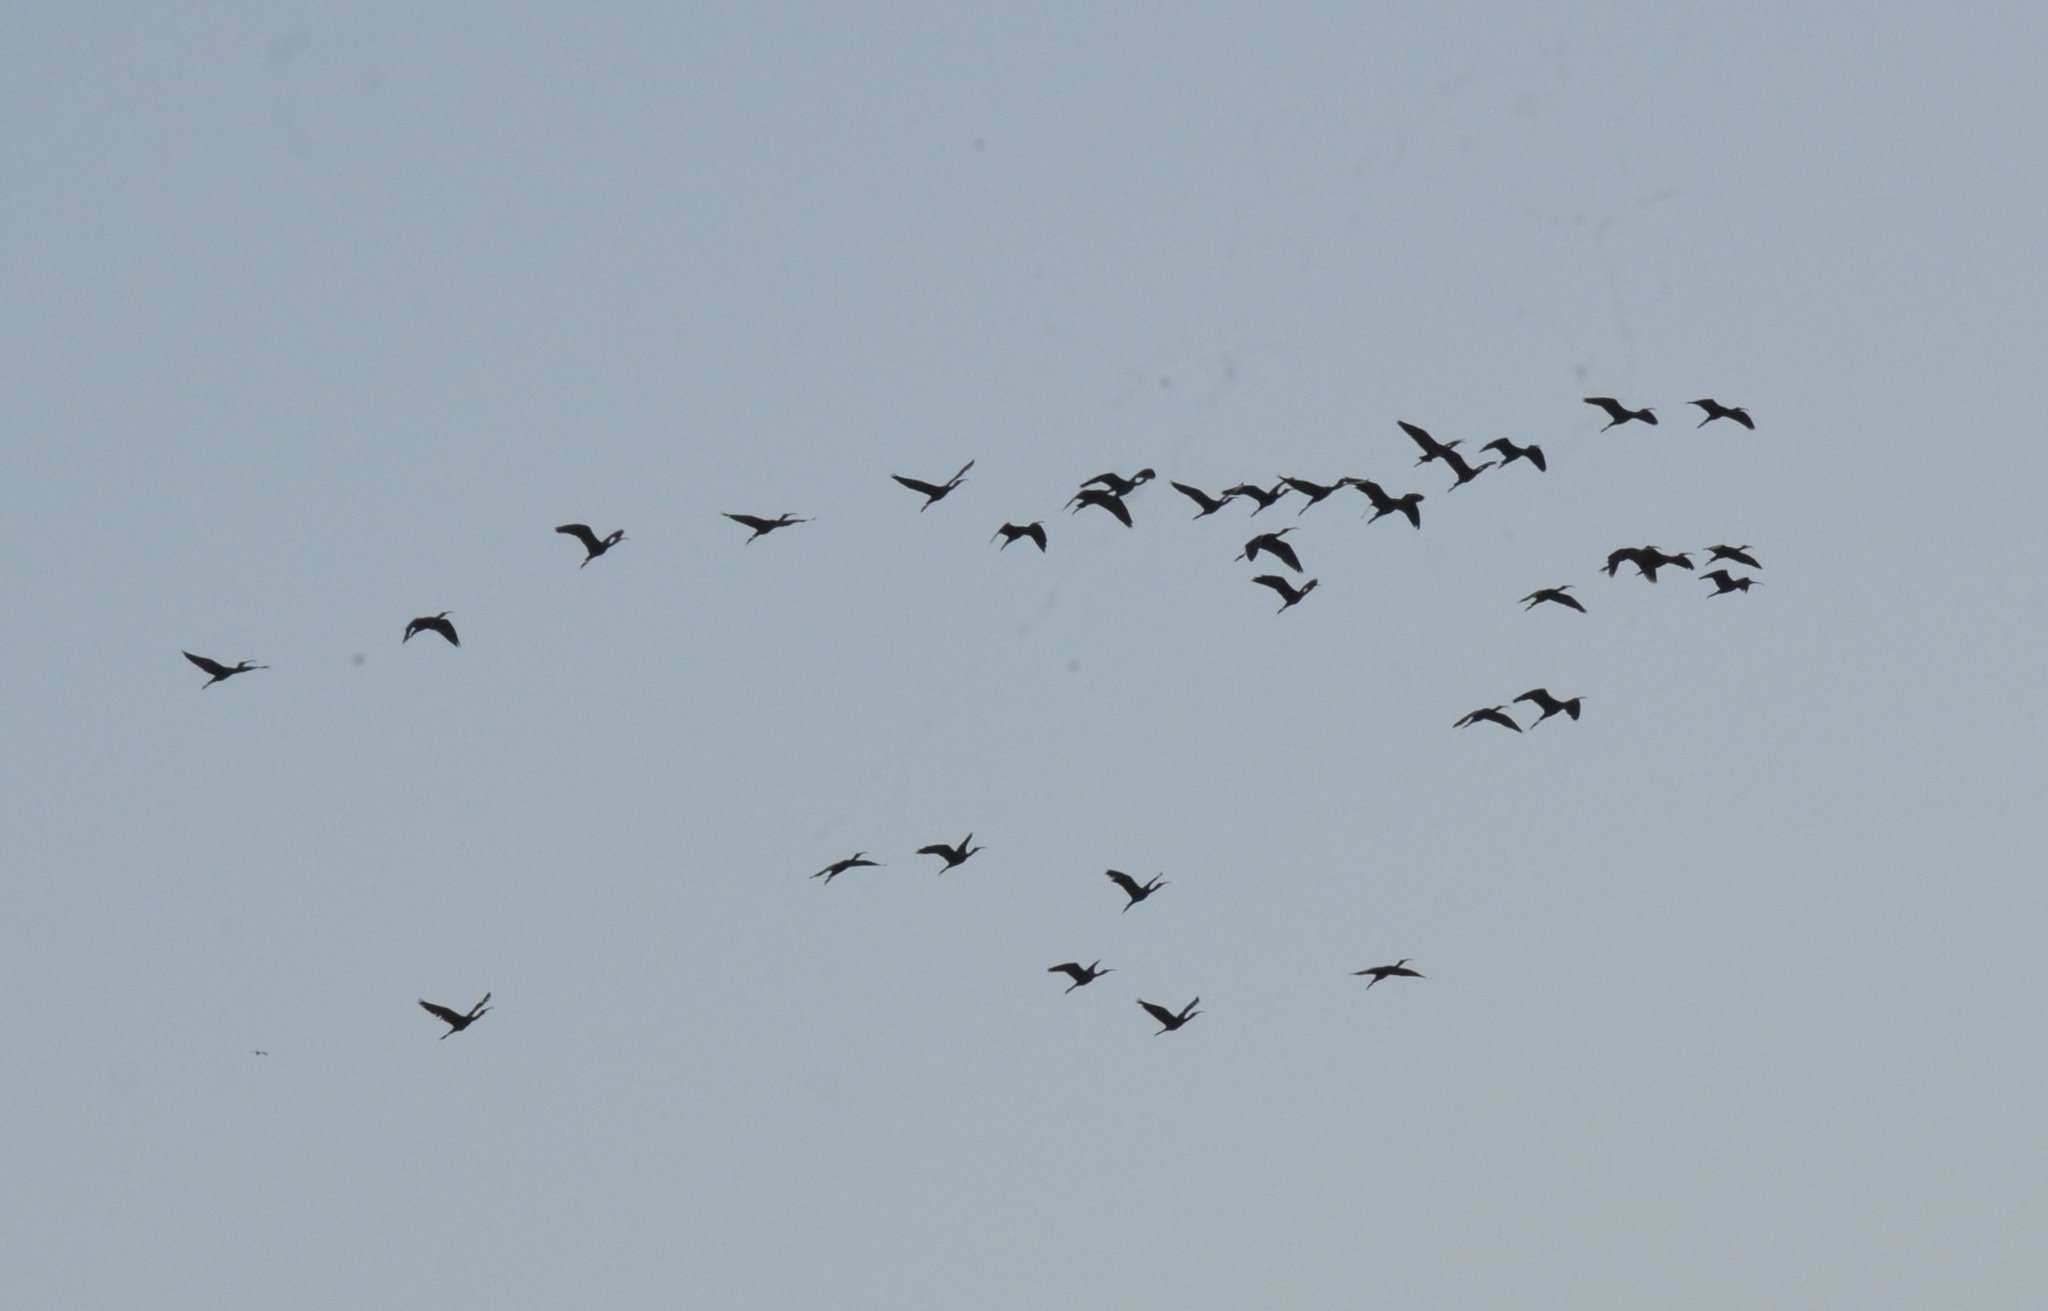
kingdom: Animalia
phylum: Chordata
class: Aves
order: Pelecaniformes
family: Threskiornithidae
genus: Plegadis
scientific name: Plegadis falcinellus
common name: Glossy ibis
